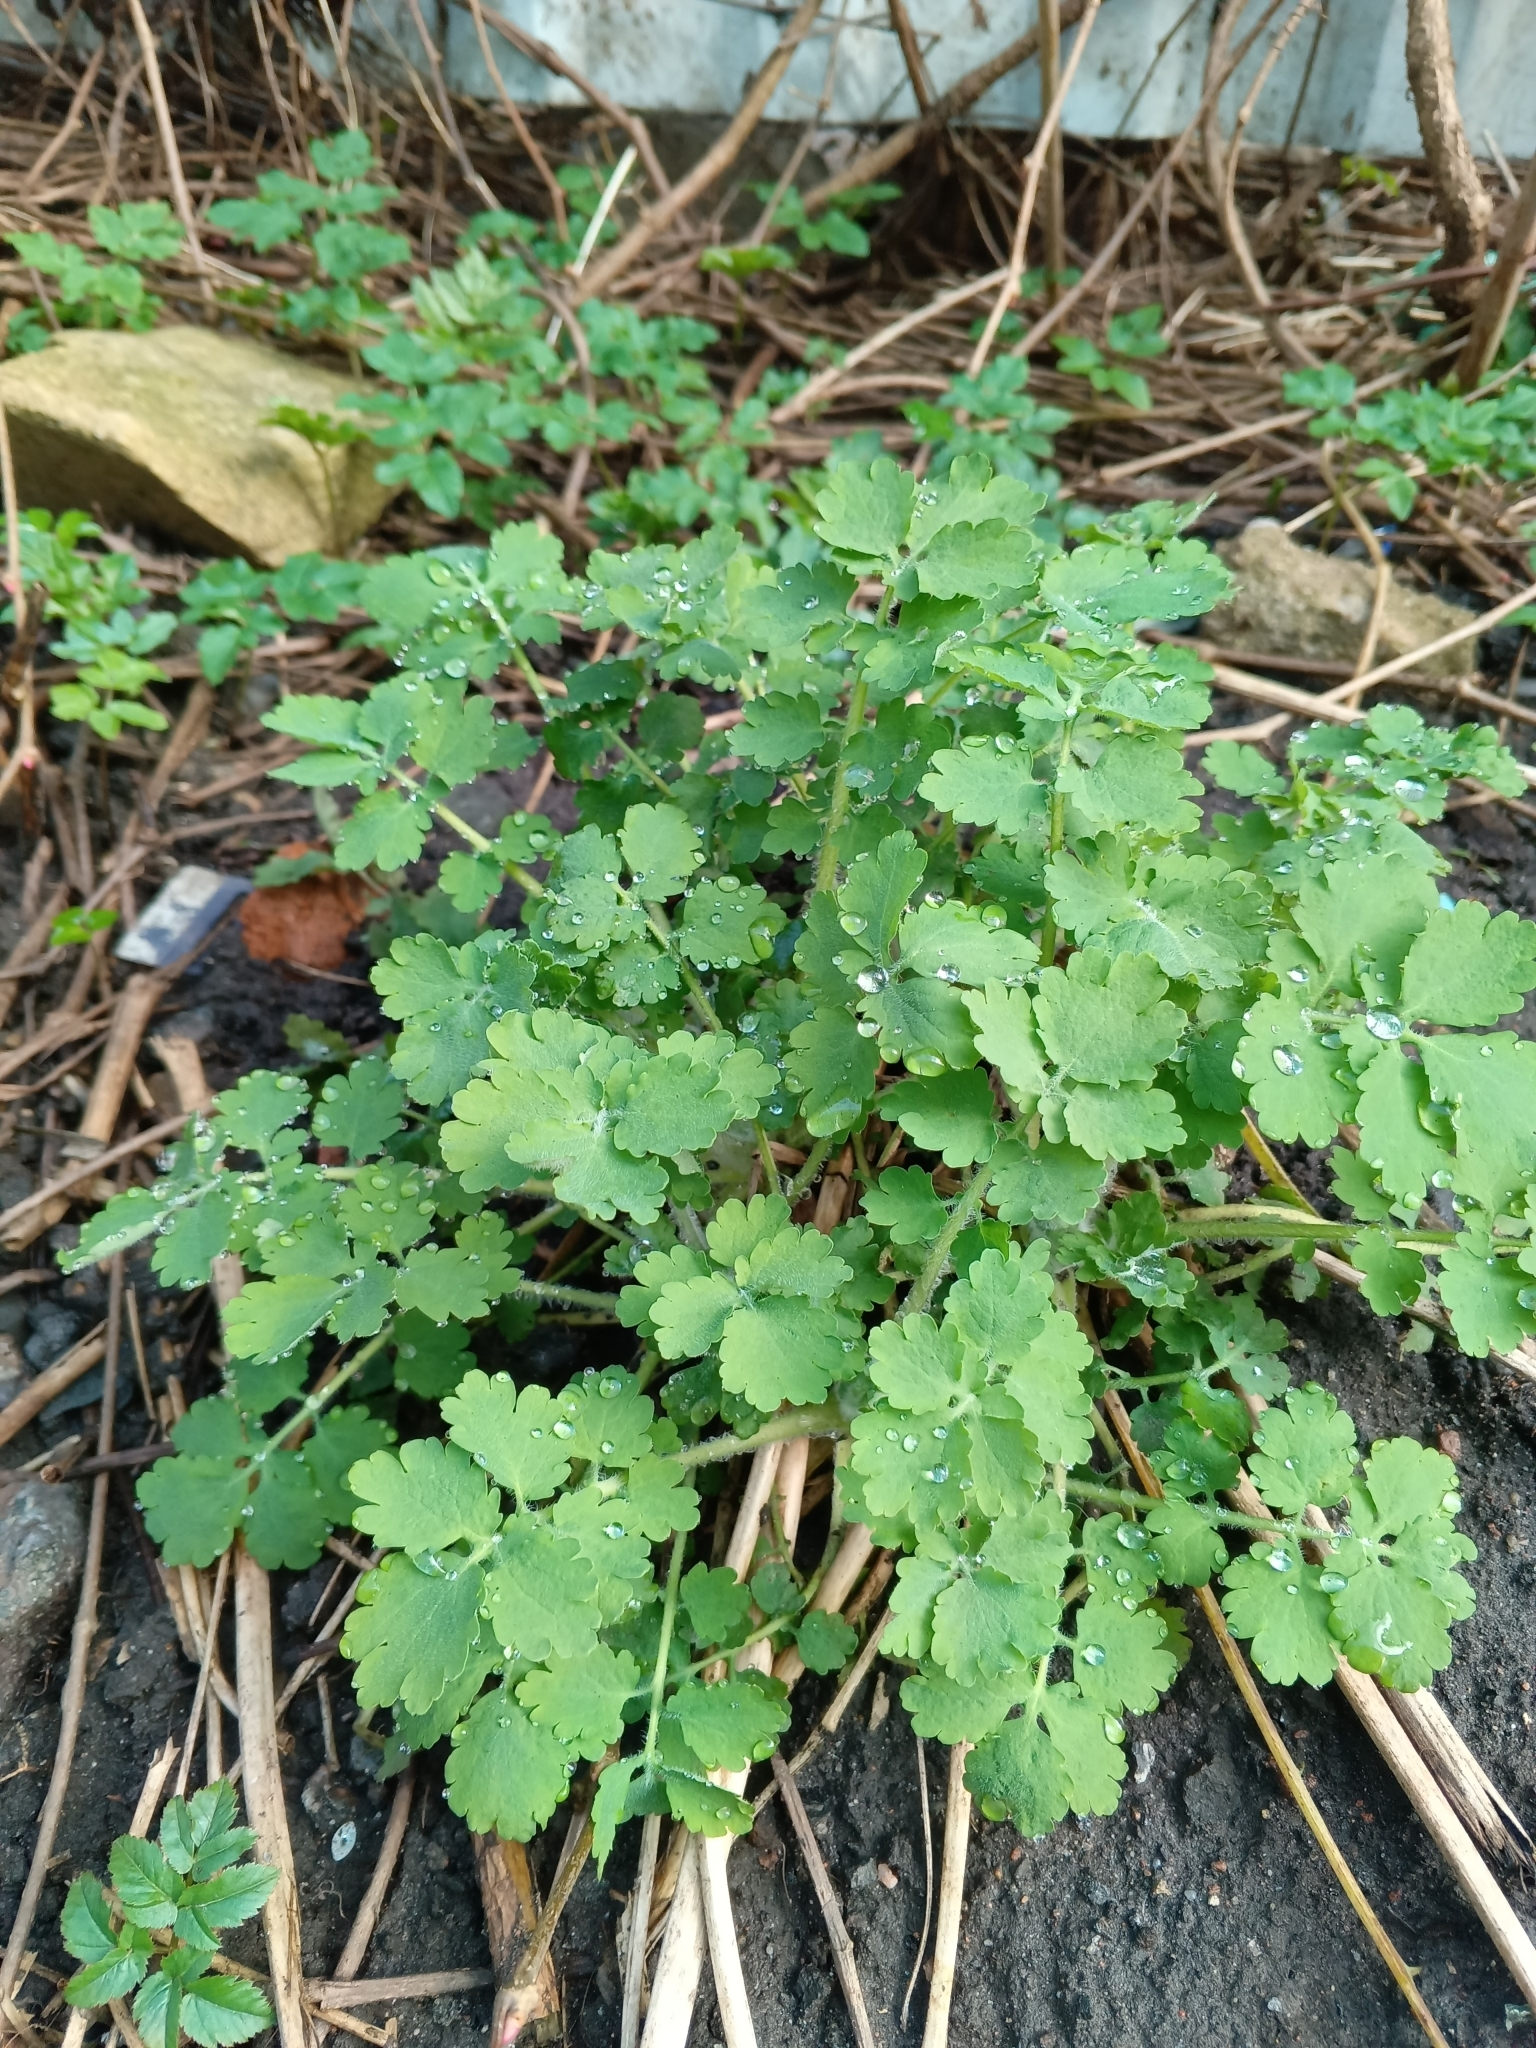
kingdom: Plantae
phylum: Tracheophyta
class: Magnoliopsida
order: Ranunculales
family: Papaveraceae
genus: Chelidonium
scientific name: Chelidonium majus
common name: Greater celandine
